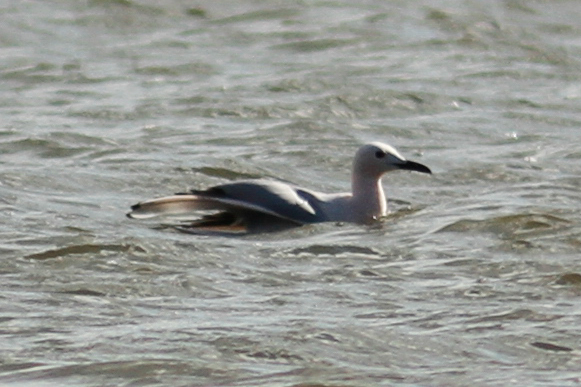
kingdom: Animalia
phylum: Chordata
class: Aves
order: Charadriiformes
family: Laridae
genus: Chroicocephalus
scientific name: Chroicocephalus genei
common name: Slender-billed gull
